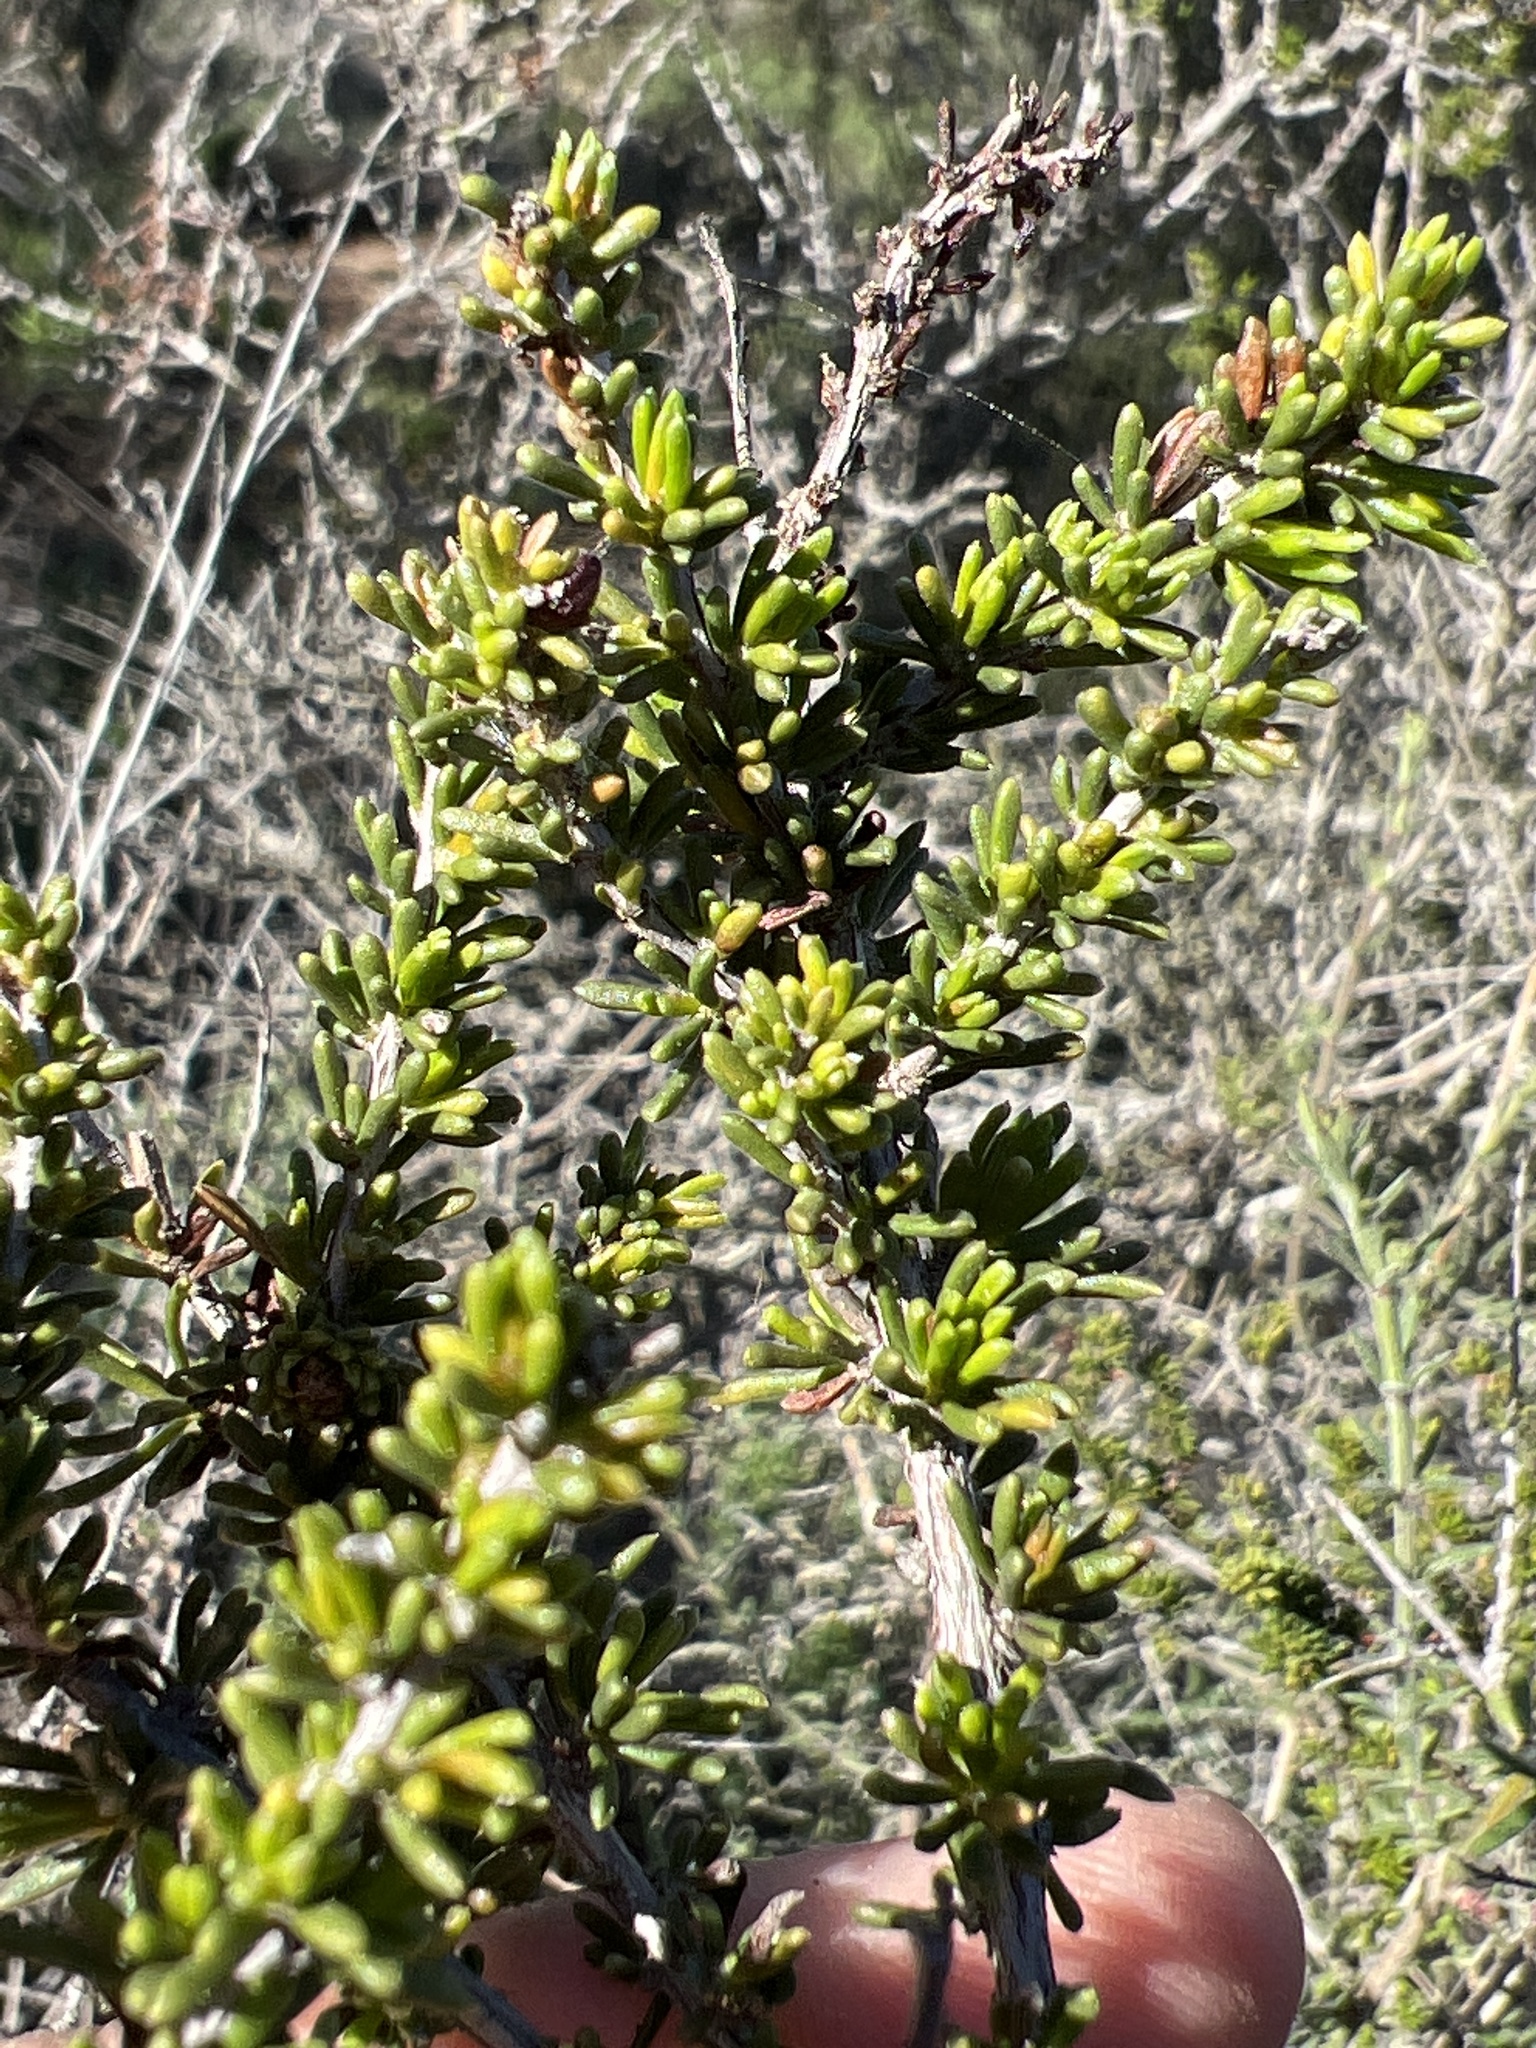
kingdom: Plantae
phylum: Tracheophyta
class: Magnoliopsida
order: Rosales
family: Rosaceae
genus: Adenostoma
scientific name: Adenostoma fasciculatum
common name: Chamise
